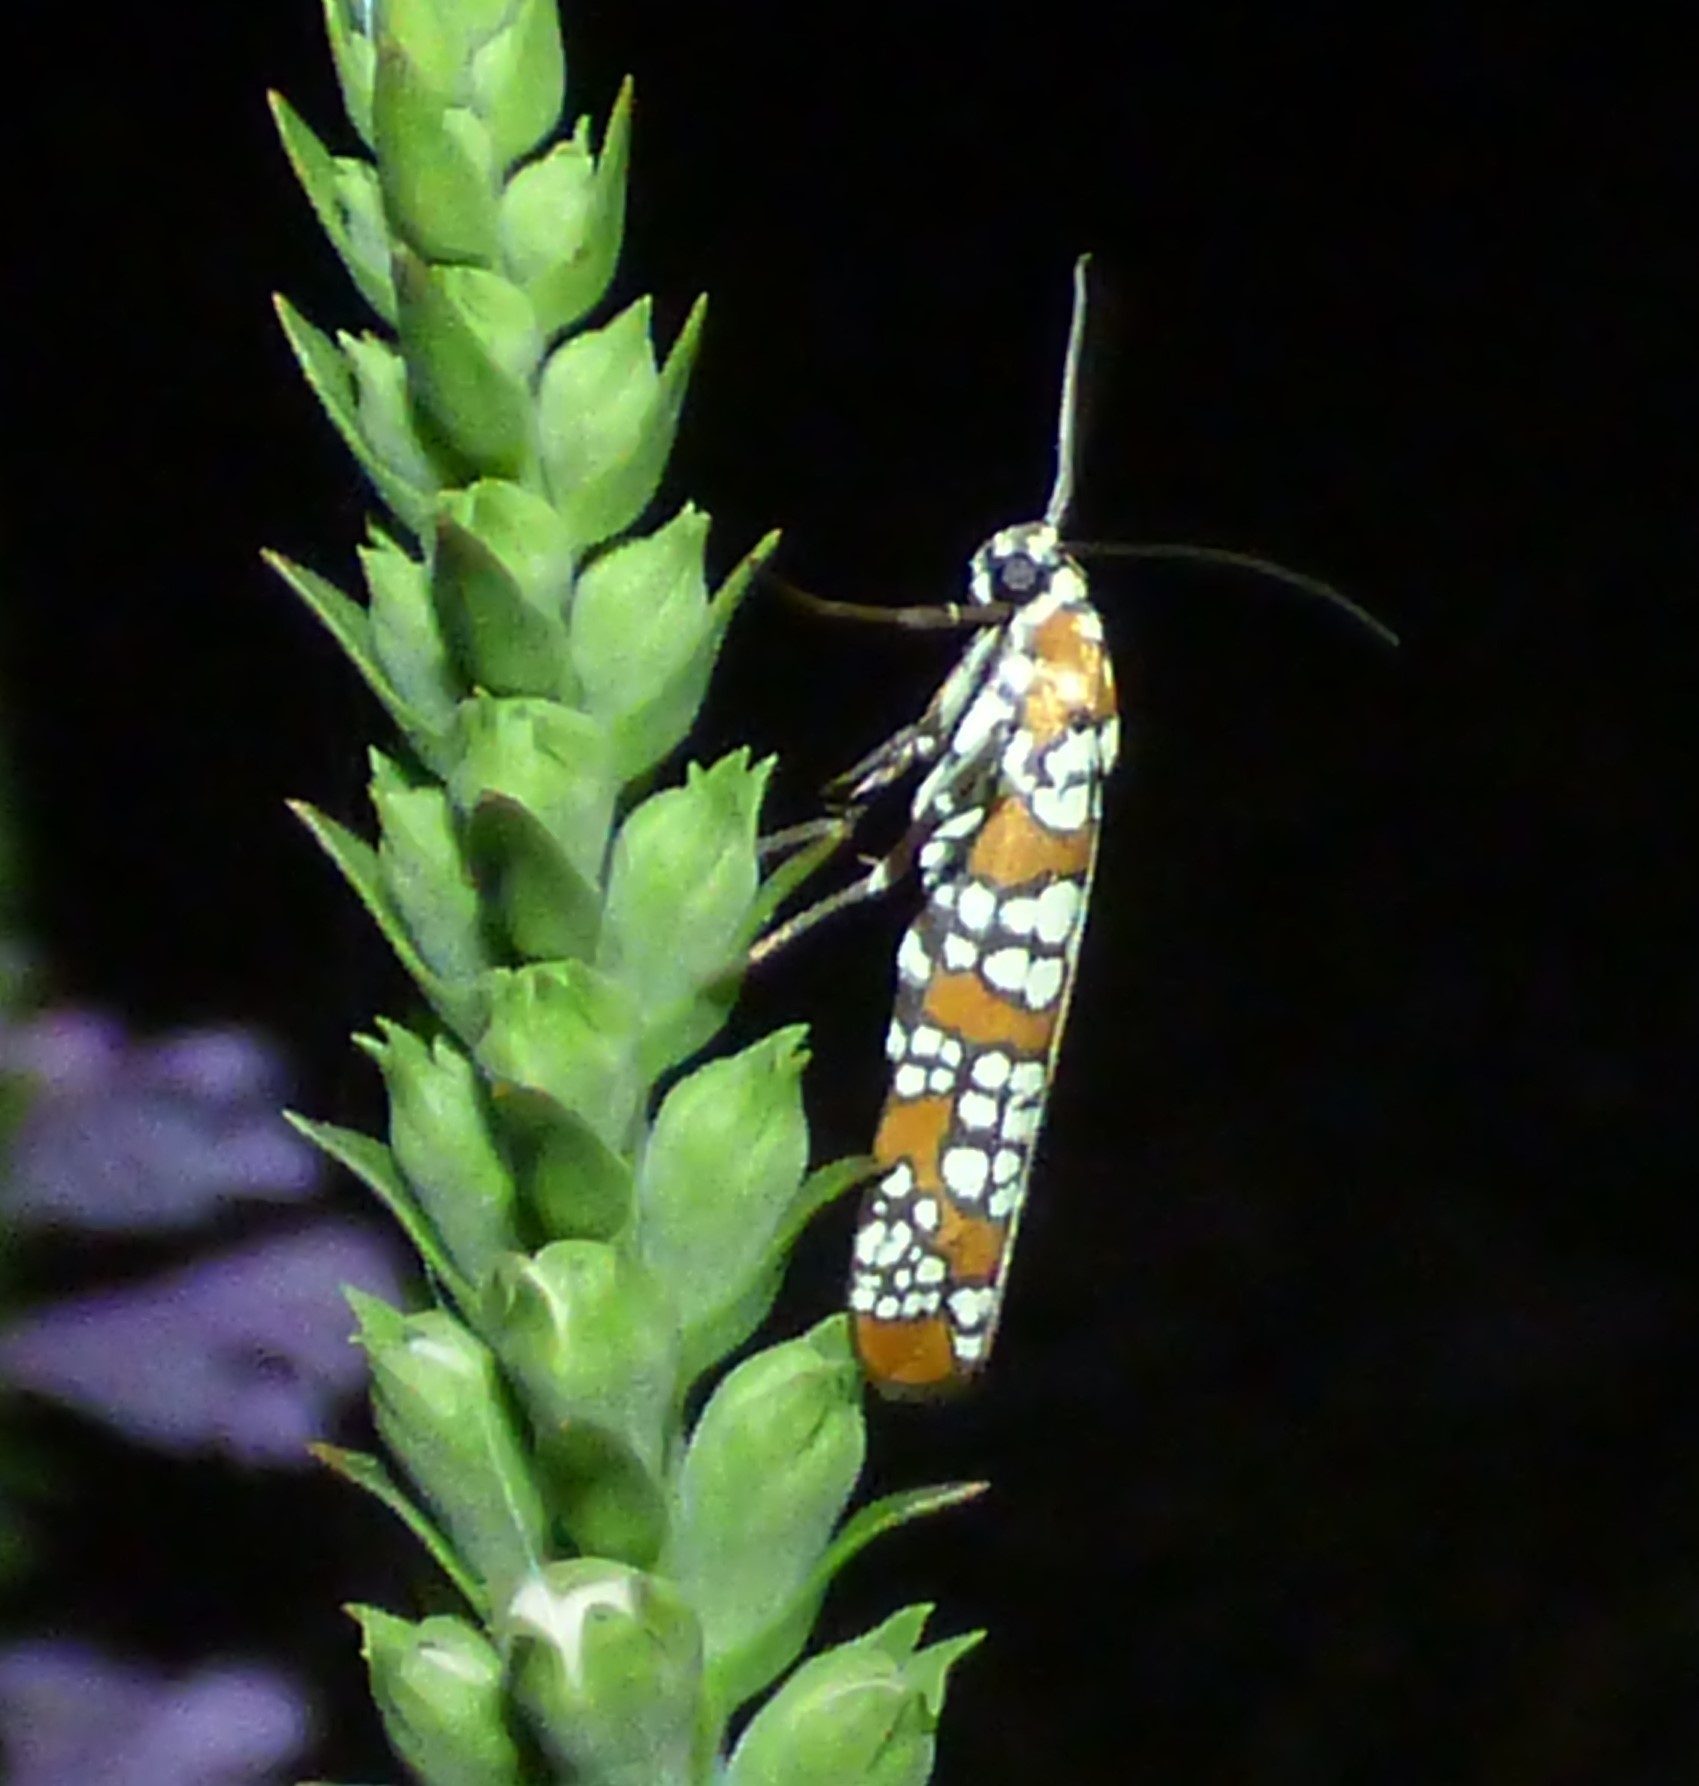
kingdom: Animalia
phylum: Arthropoda
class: Insecta
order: Lepidoptera
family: Attevidae
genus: Atteva
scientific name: Atteva punctella
